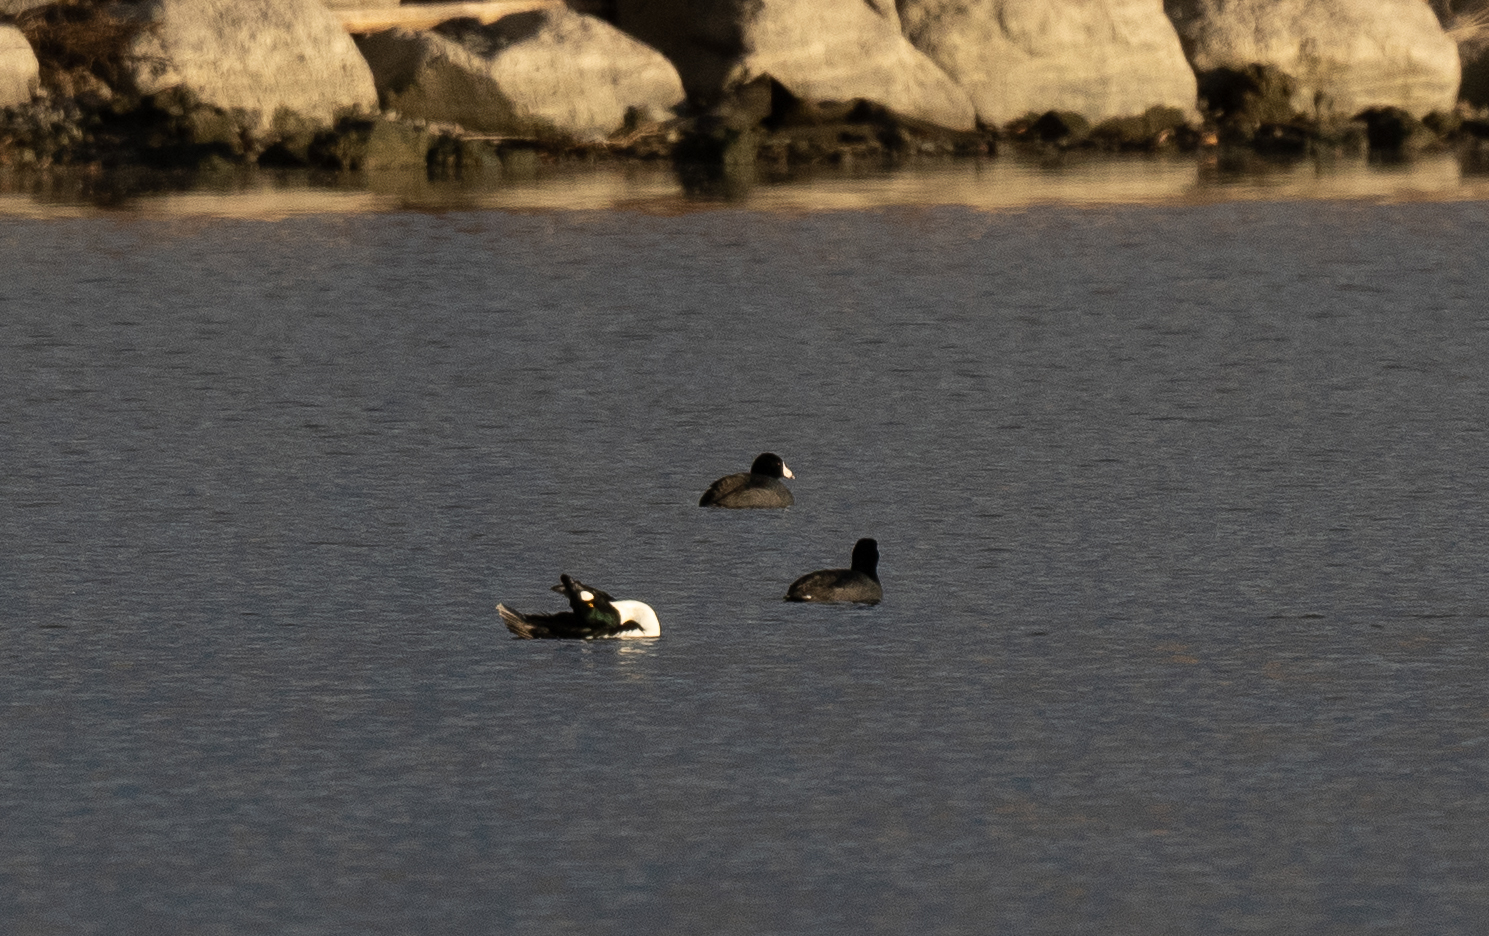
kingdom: Animalia
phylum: Chordata
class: Aves
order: Anseriformes
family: Anatidae
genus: Bucephala
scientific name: Bucephala clangula
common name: Common goldeneye
